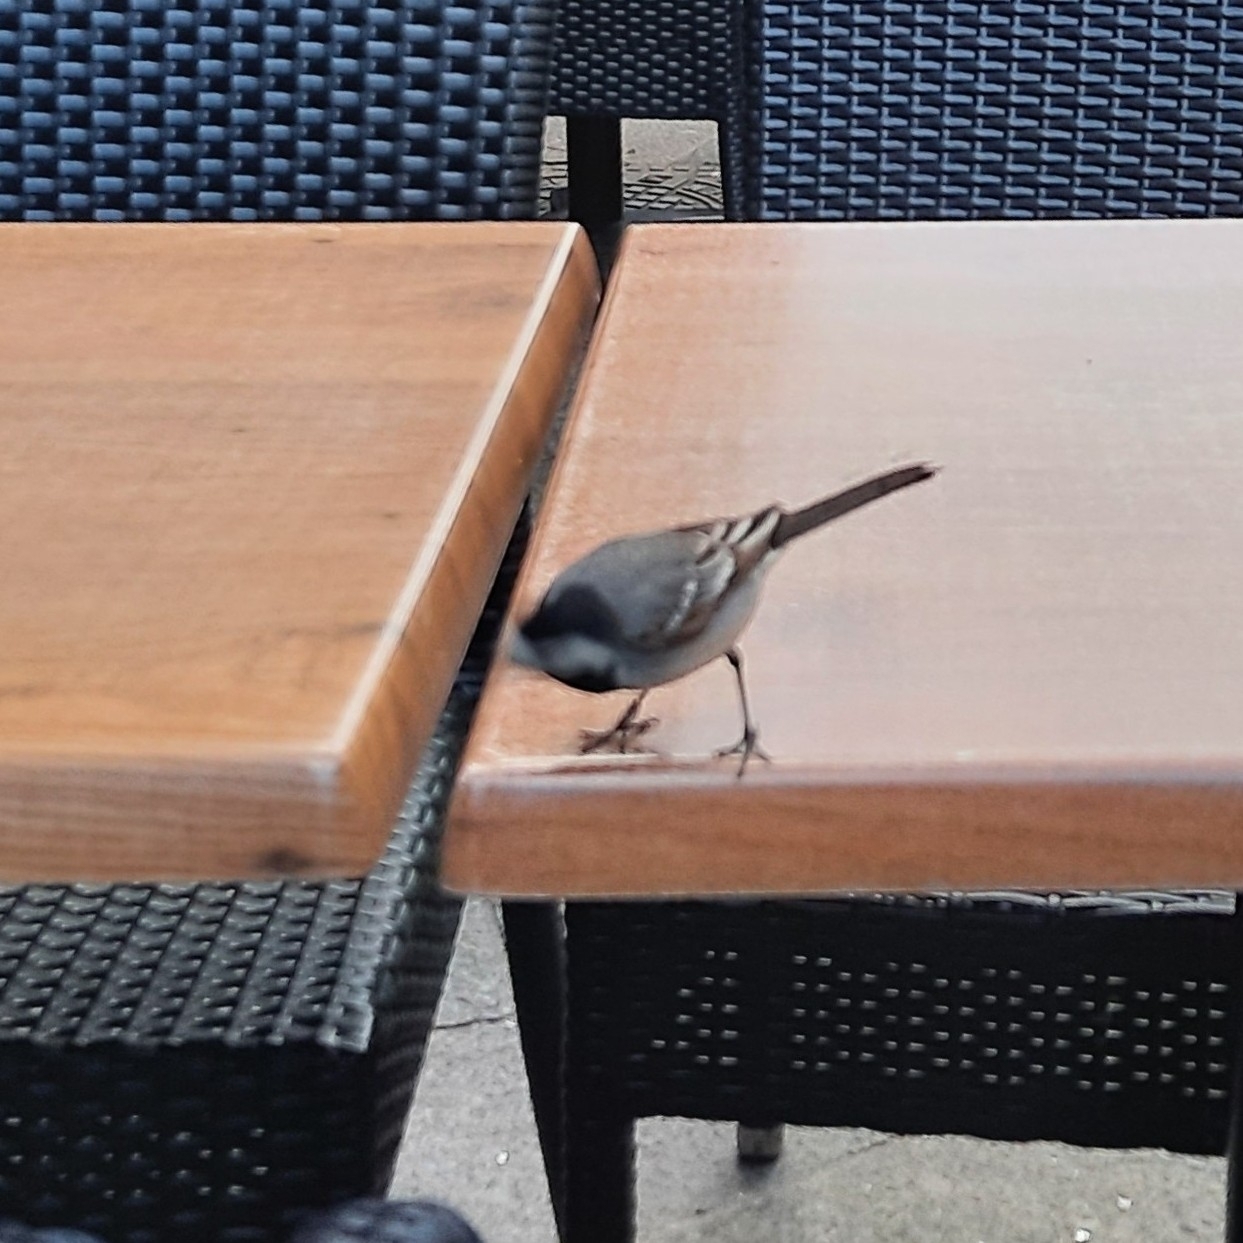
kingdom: Animalia
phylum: Chordata
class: Aves
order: Passeriformes
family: Motacillidae
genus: Motacilla
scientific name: Motacilla alba
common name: White wagtail
